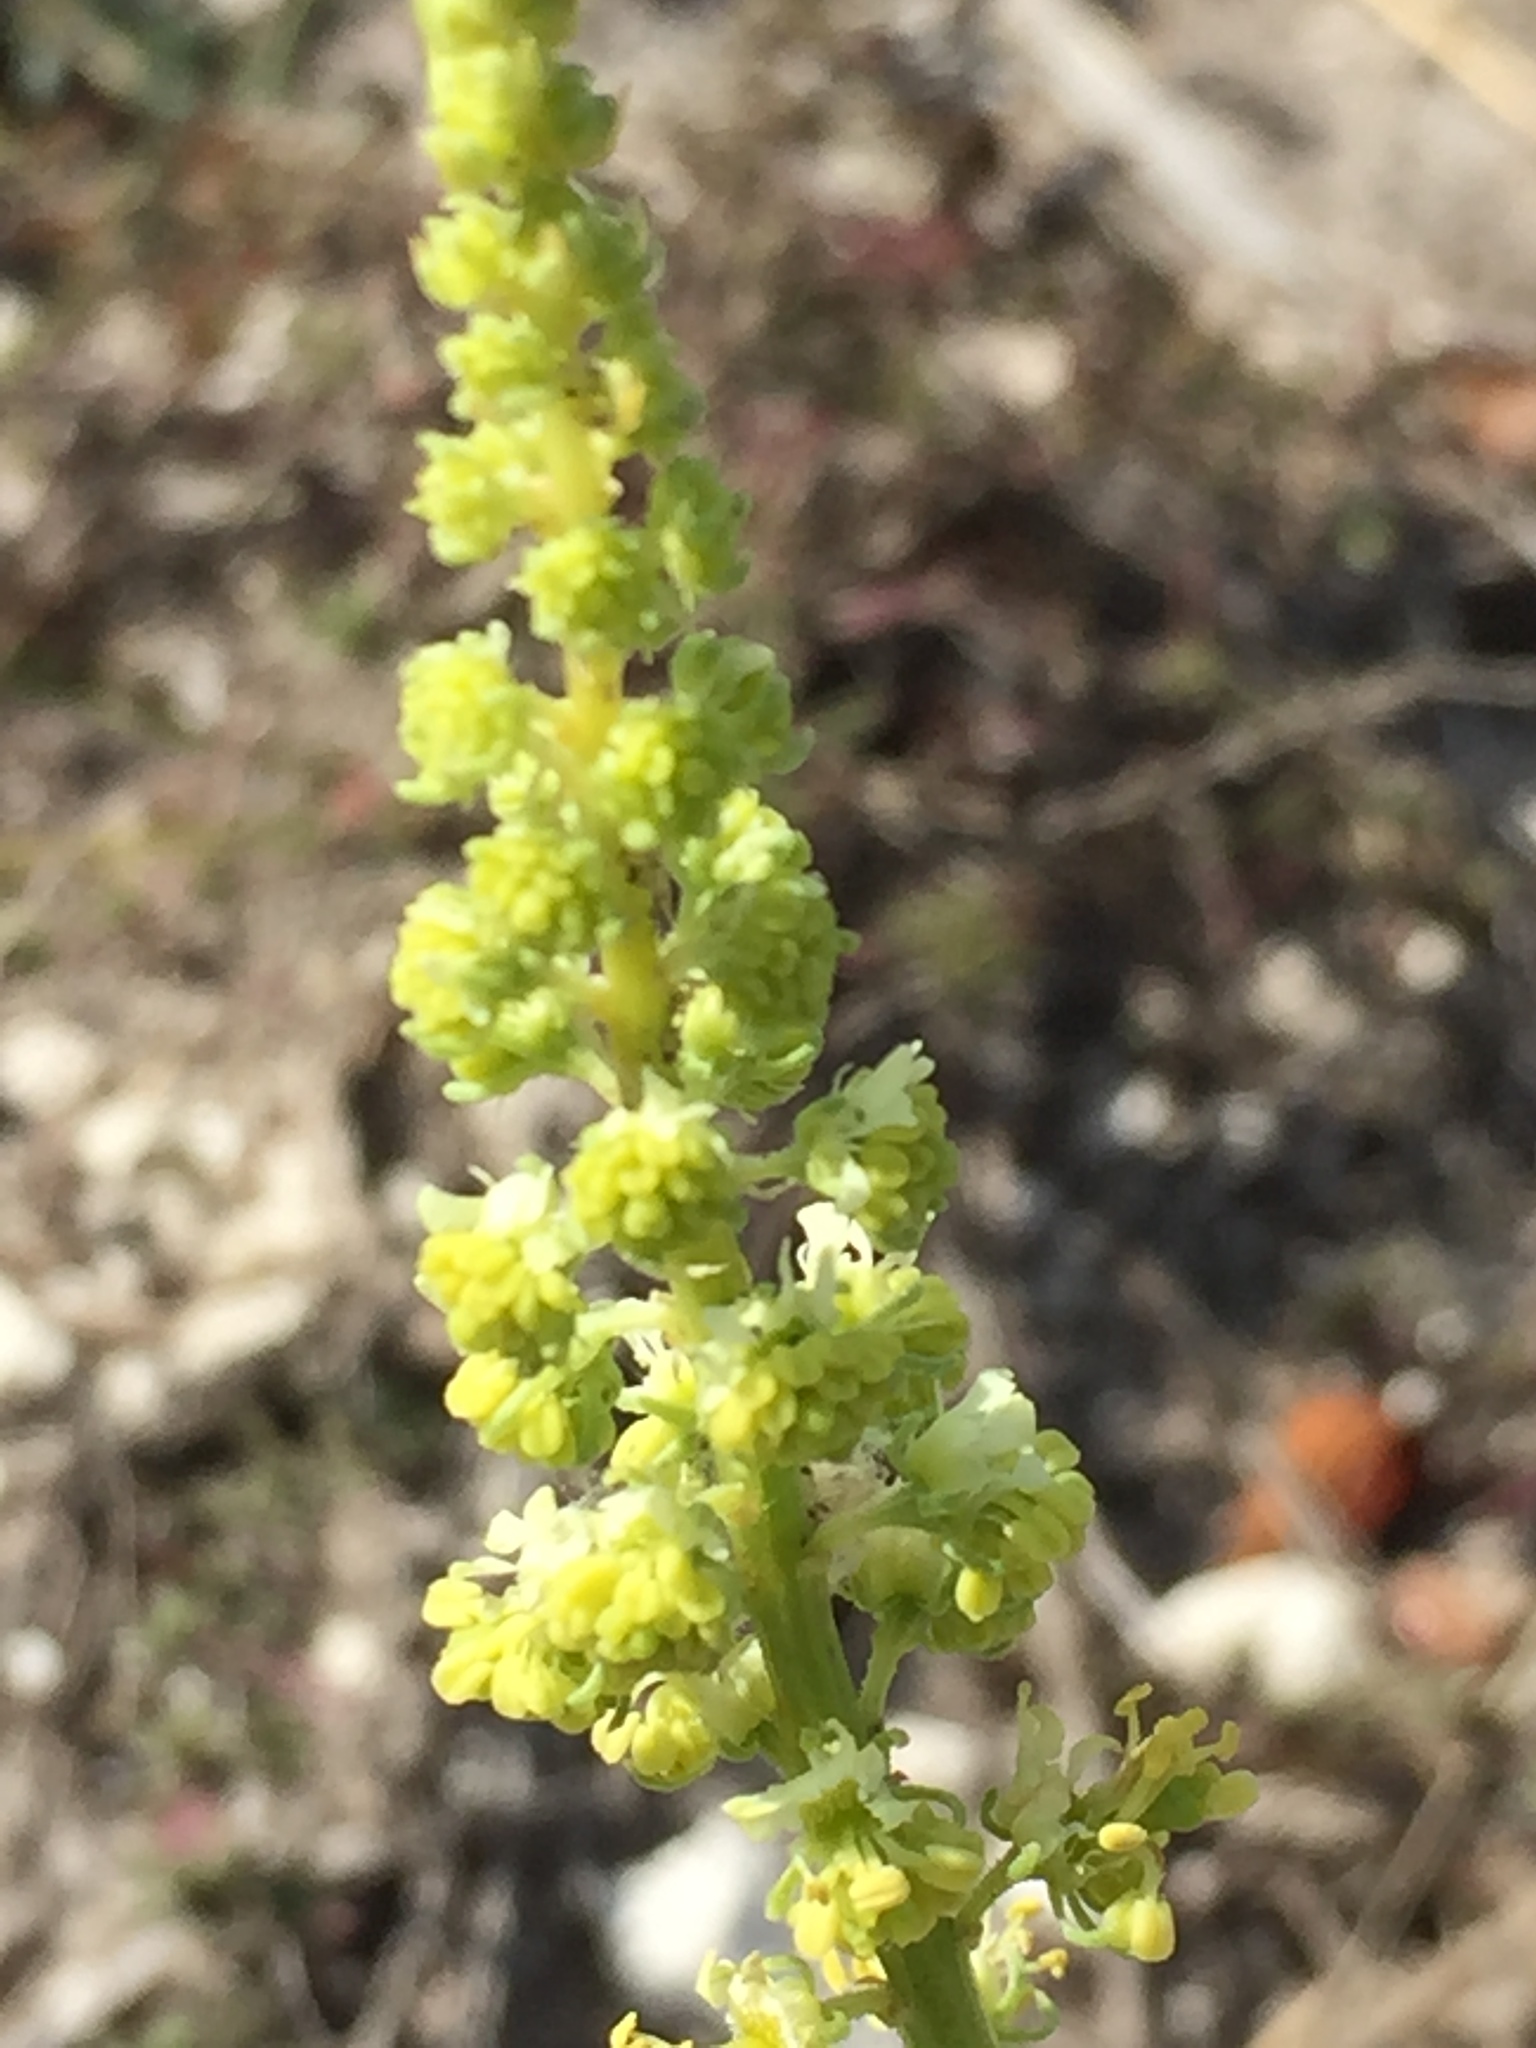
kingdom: Plantae
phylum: Tracheophyta
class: Magnoliopsida
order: Brassicales
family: Resedaceae
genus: Reseda
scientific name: Reseda lutea
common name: Wild mignonette
